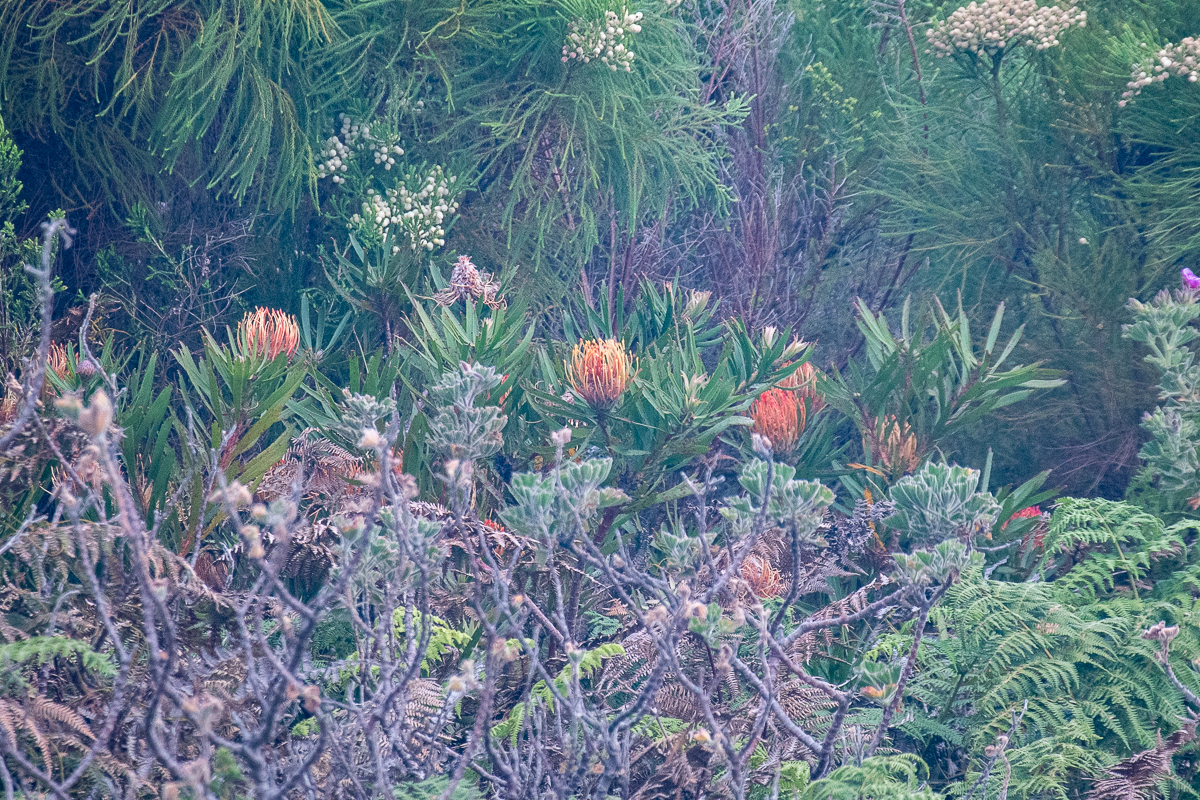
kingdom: Plantae
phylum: Tracheophyta
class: Magnoliopsida
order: Proteales
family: Proteaceae
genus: Leucospermum
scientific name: Leucospermum cuneiforme
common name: Common pincushion
